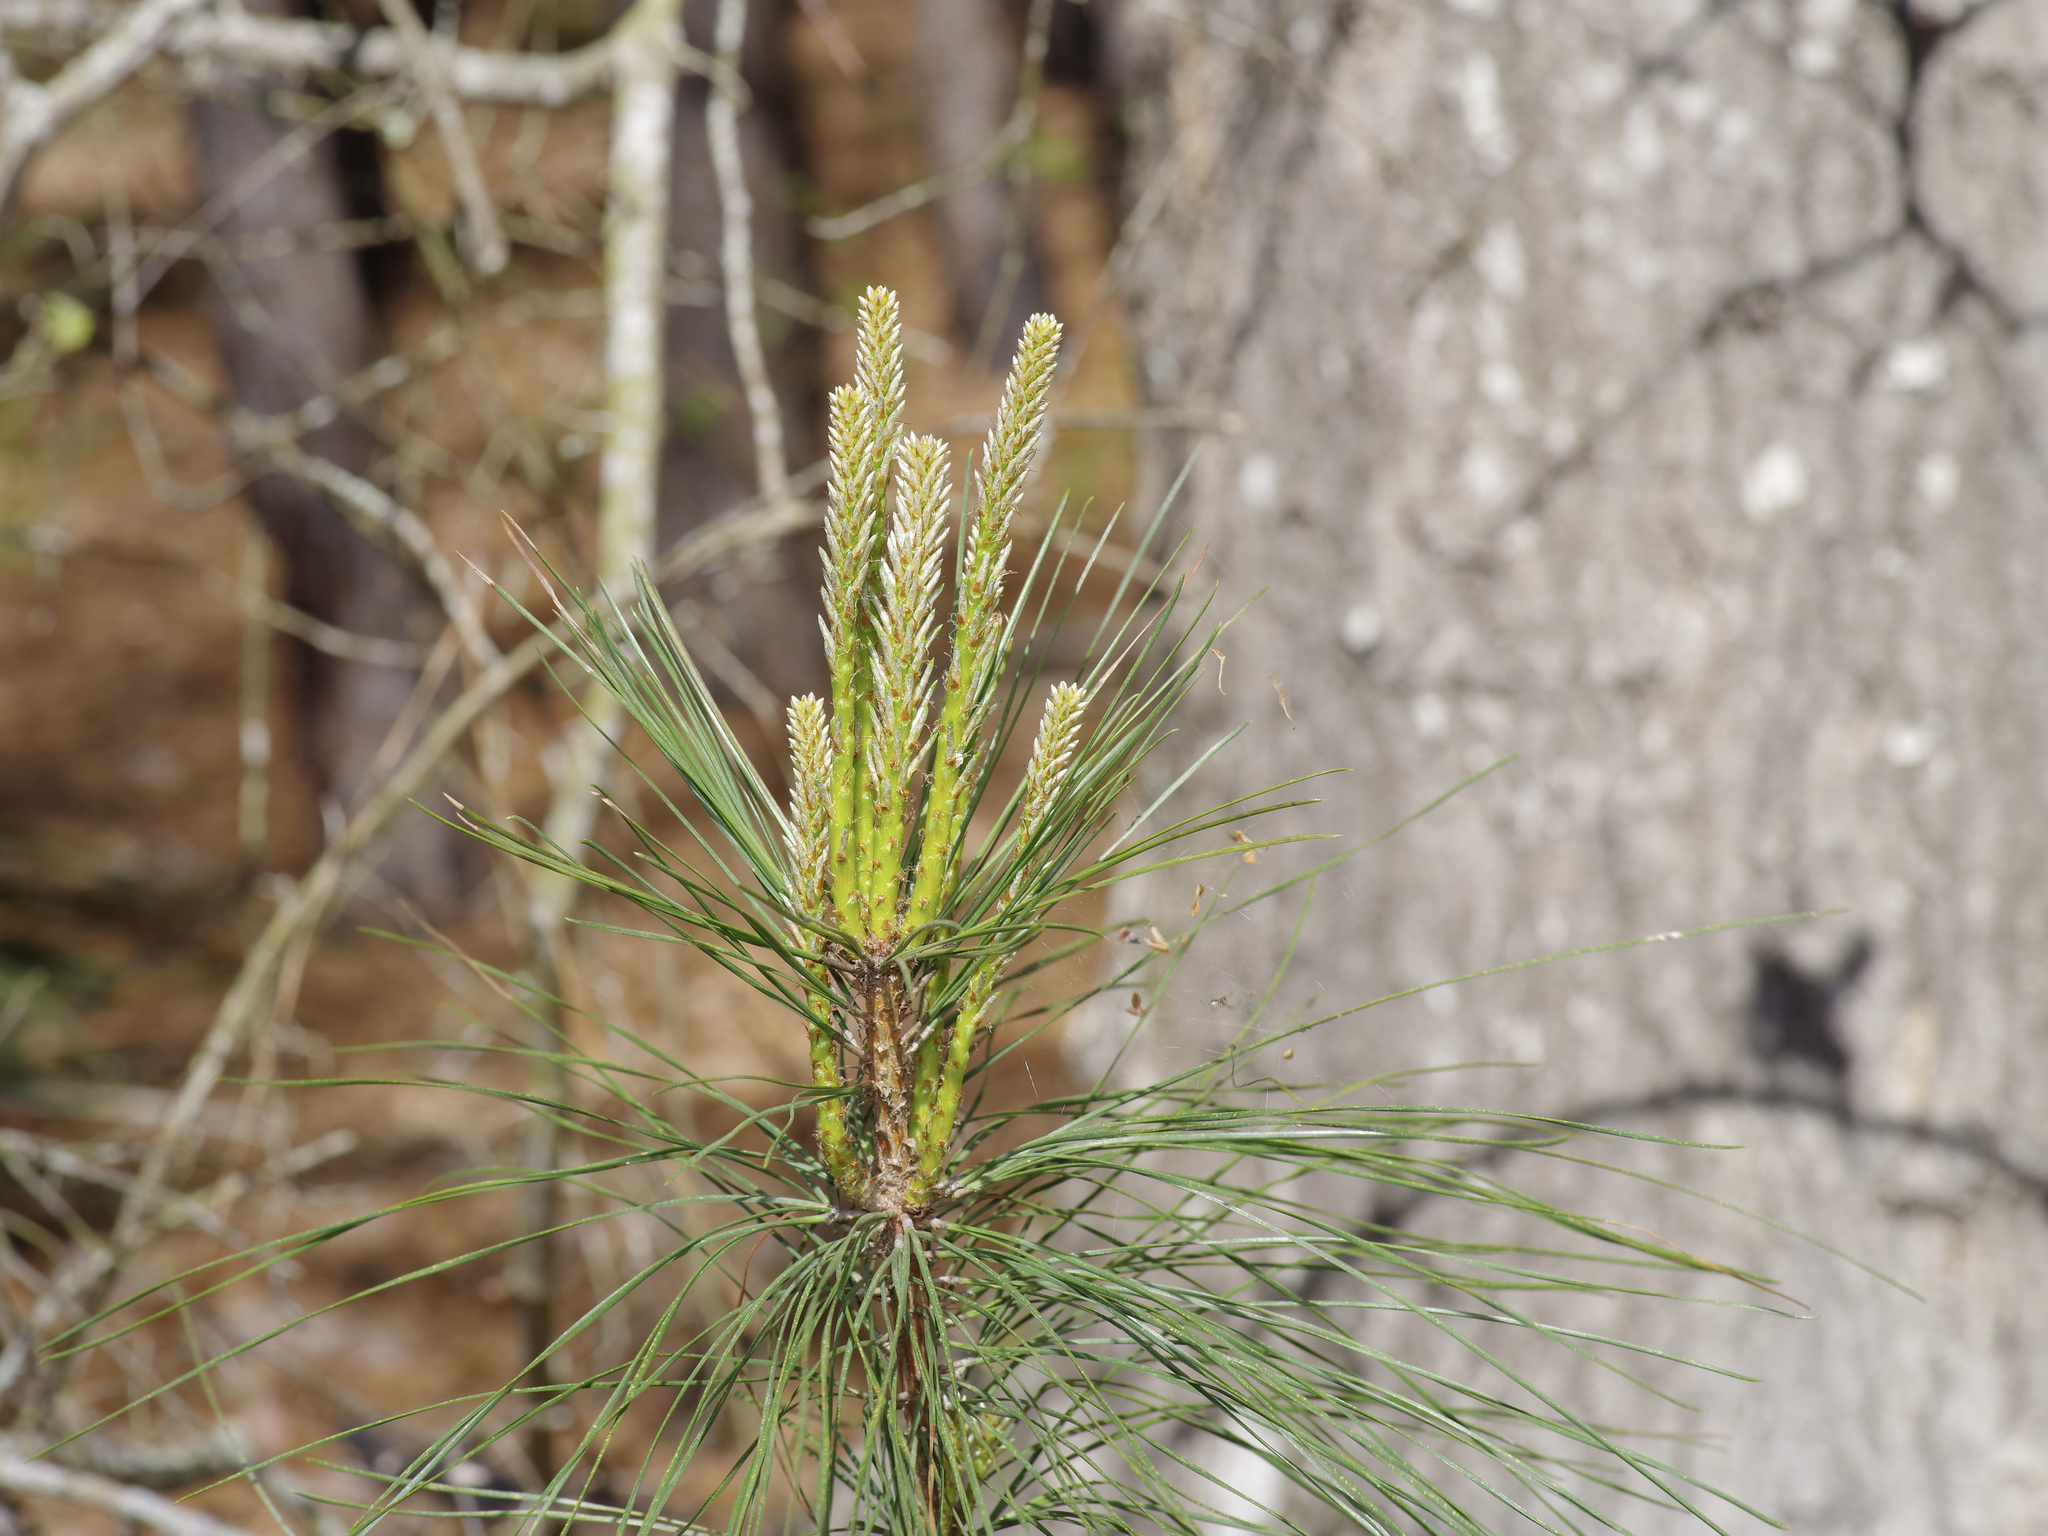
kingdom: Plantae
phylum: Tracheophyta
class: Pinopsida
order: Pinales
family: Pinaceae
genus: Pinus
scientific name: Pinus taeda
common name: Loblolly pine
